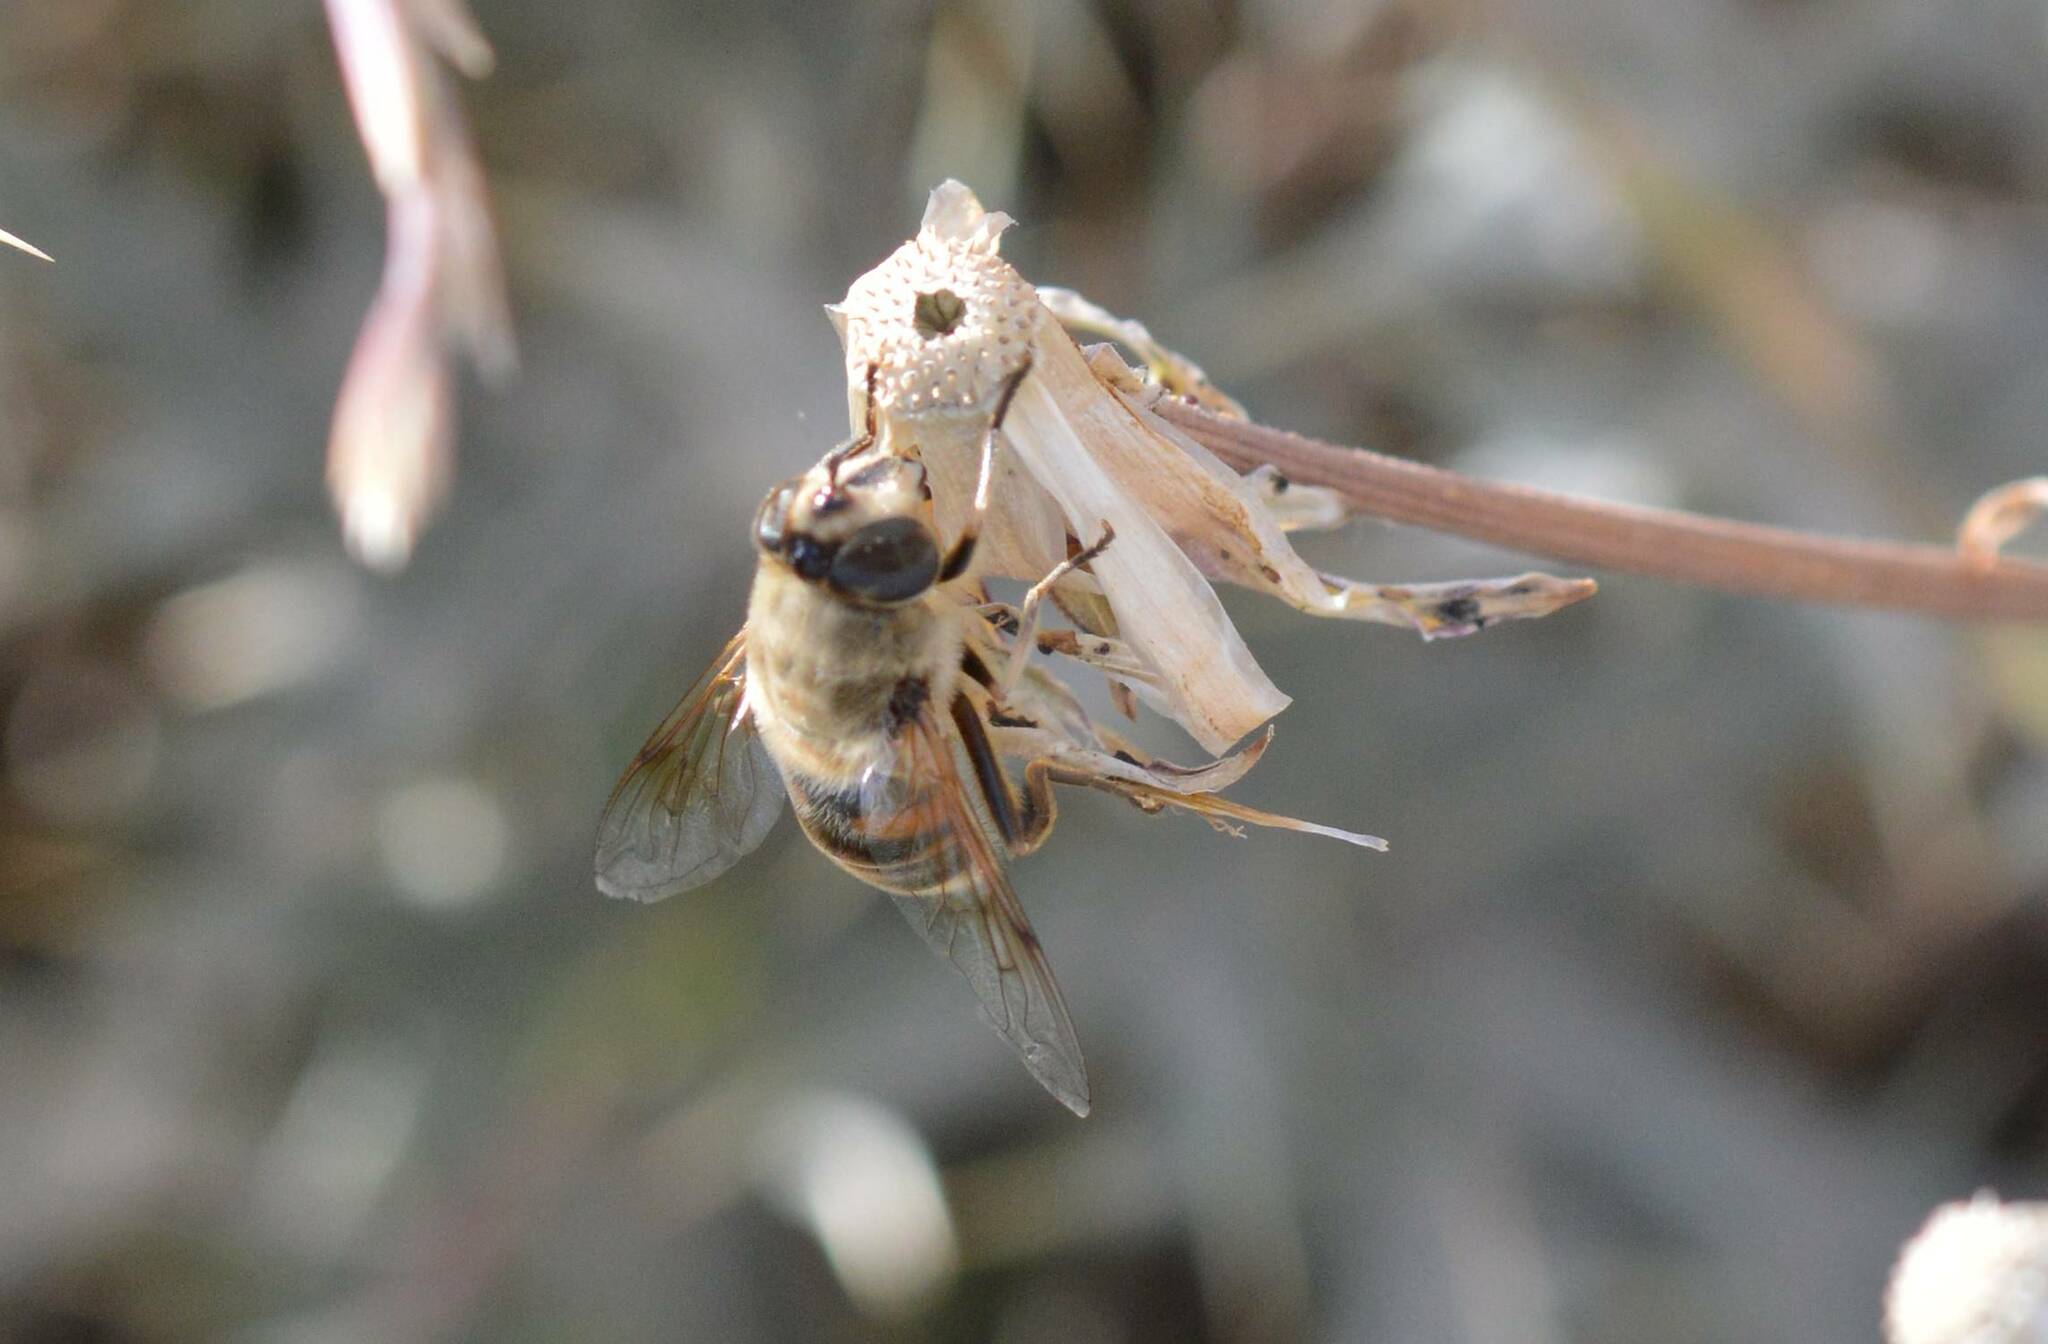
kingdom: Animalia
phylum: Arthropoda
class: Insecta
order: Diptera
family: Syrphidae
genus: Eristalis
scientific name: Eristalis tenax
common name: Drone fly
